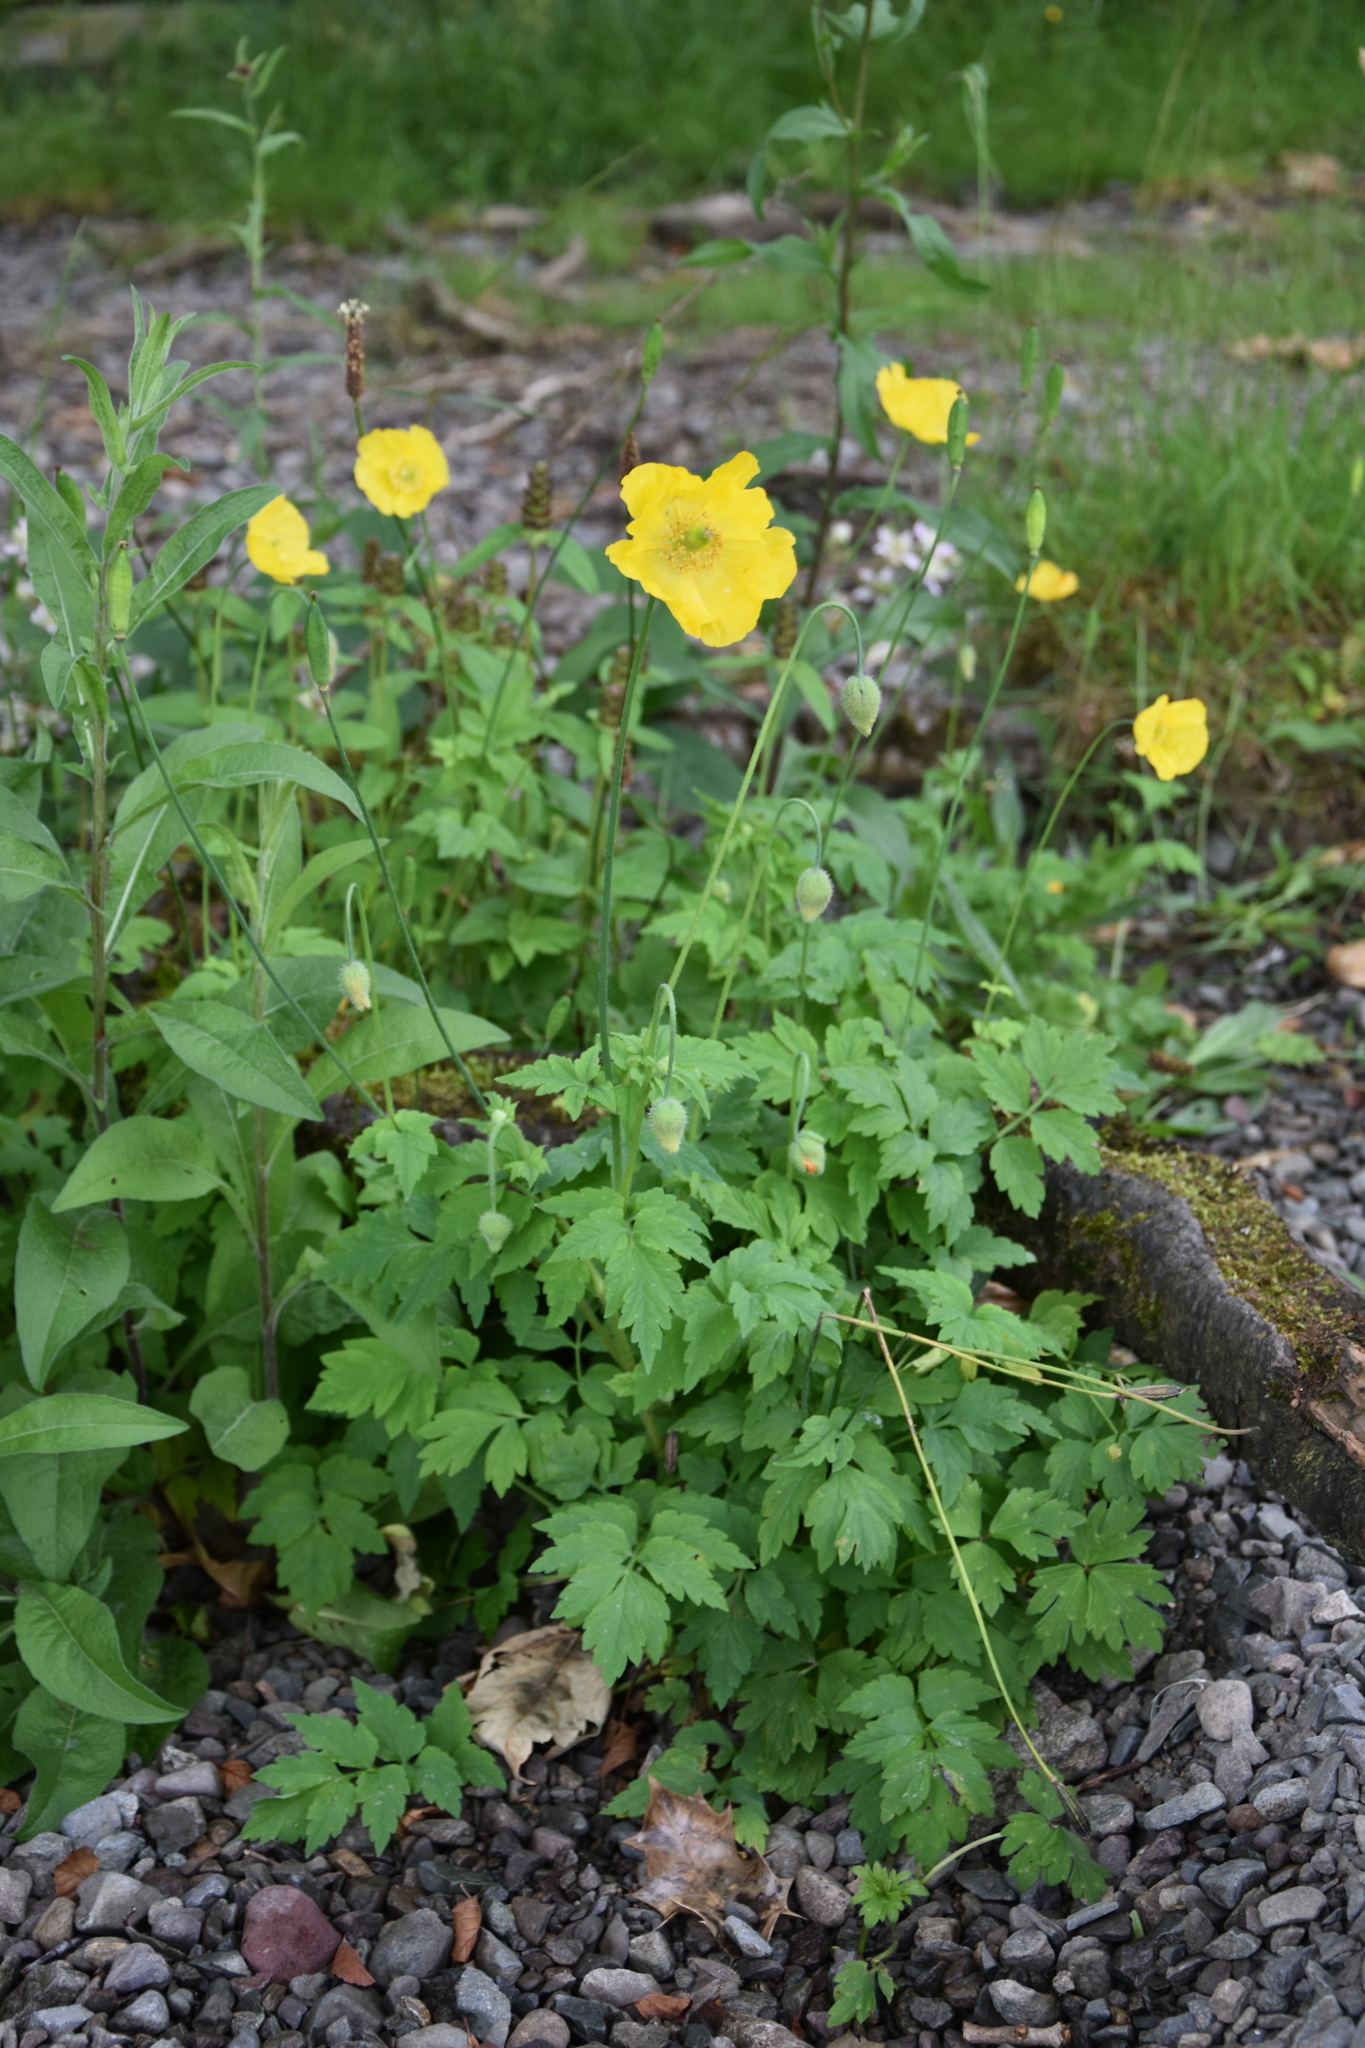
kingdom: Plantae
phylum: Tracheophyta
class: Magnoliopsida
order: Ranunculales
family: Papaveraceae
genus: Papaver
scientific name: Papaver cambricum
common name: Poppy
